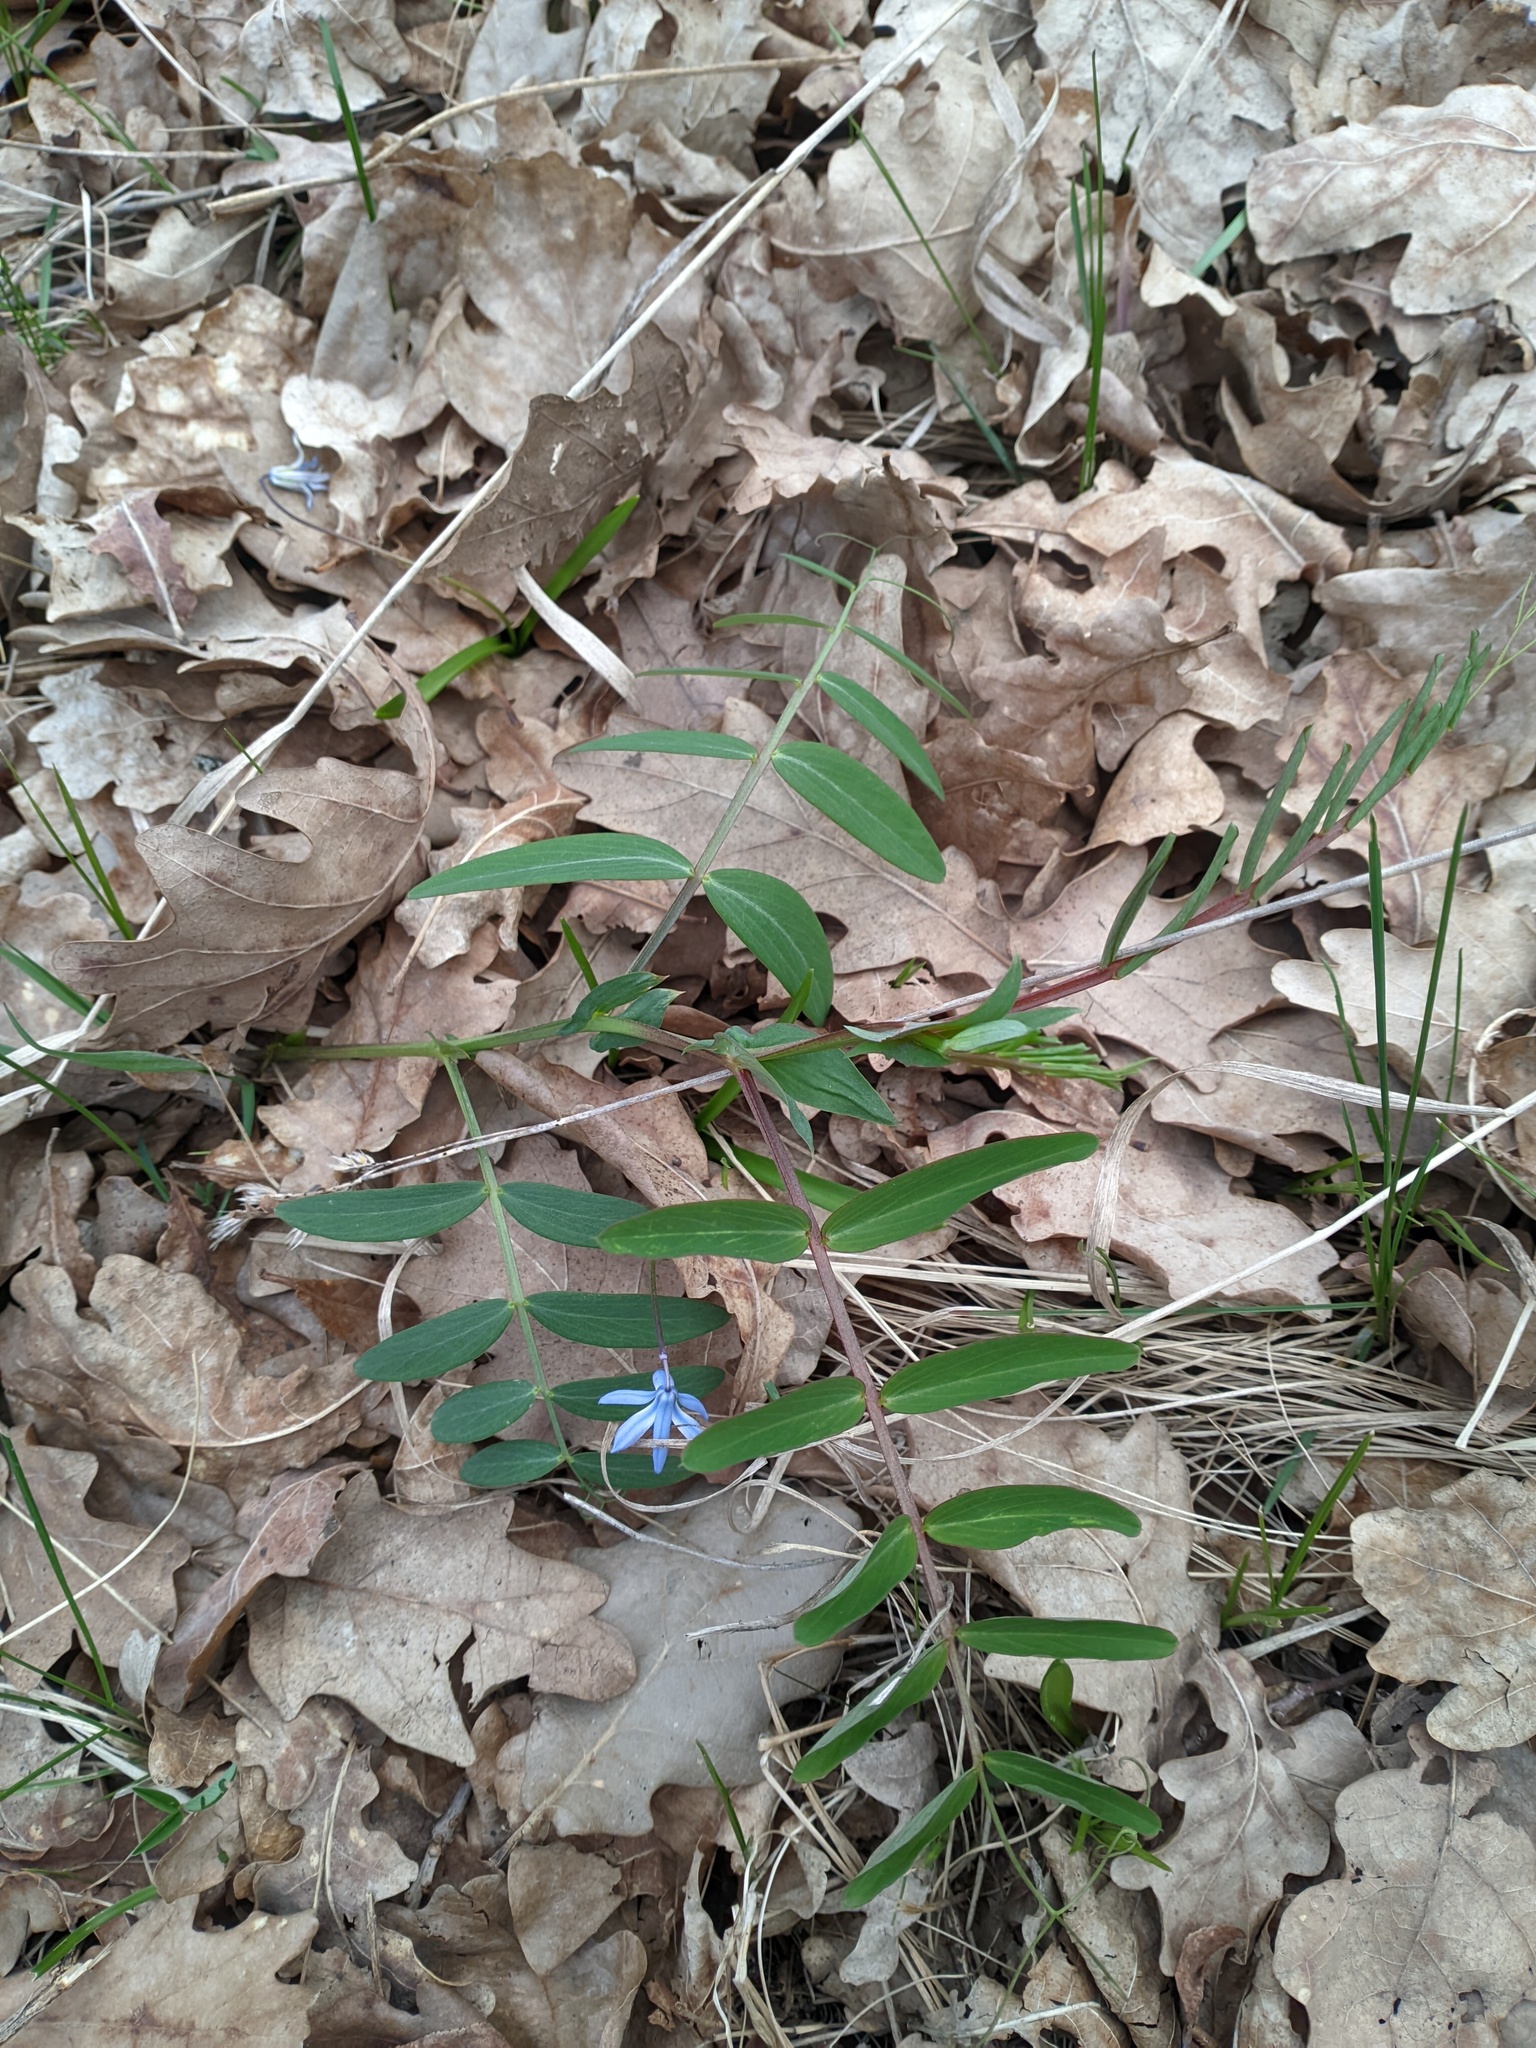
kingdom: Plantae
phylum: Tracheophyta
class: Magnoliopsida
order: Fabales
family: Fabaceae
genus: Lathyrus
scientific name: Lathyrus pisiformis
